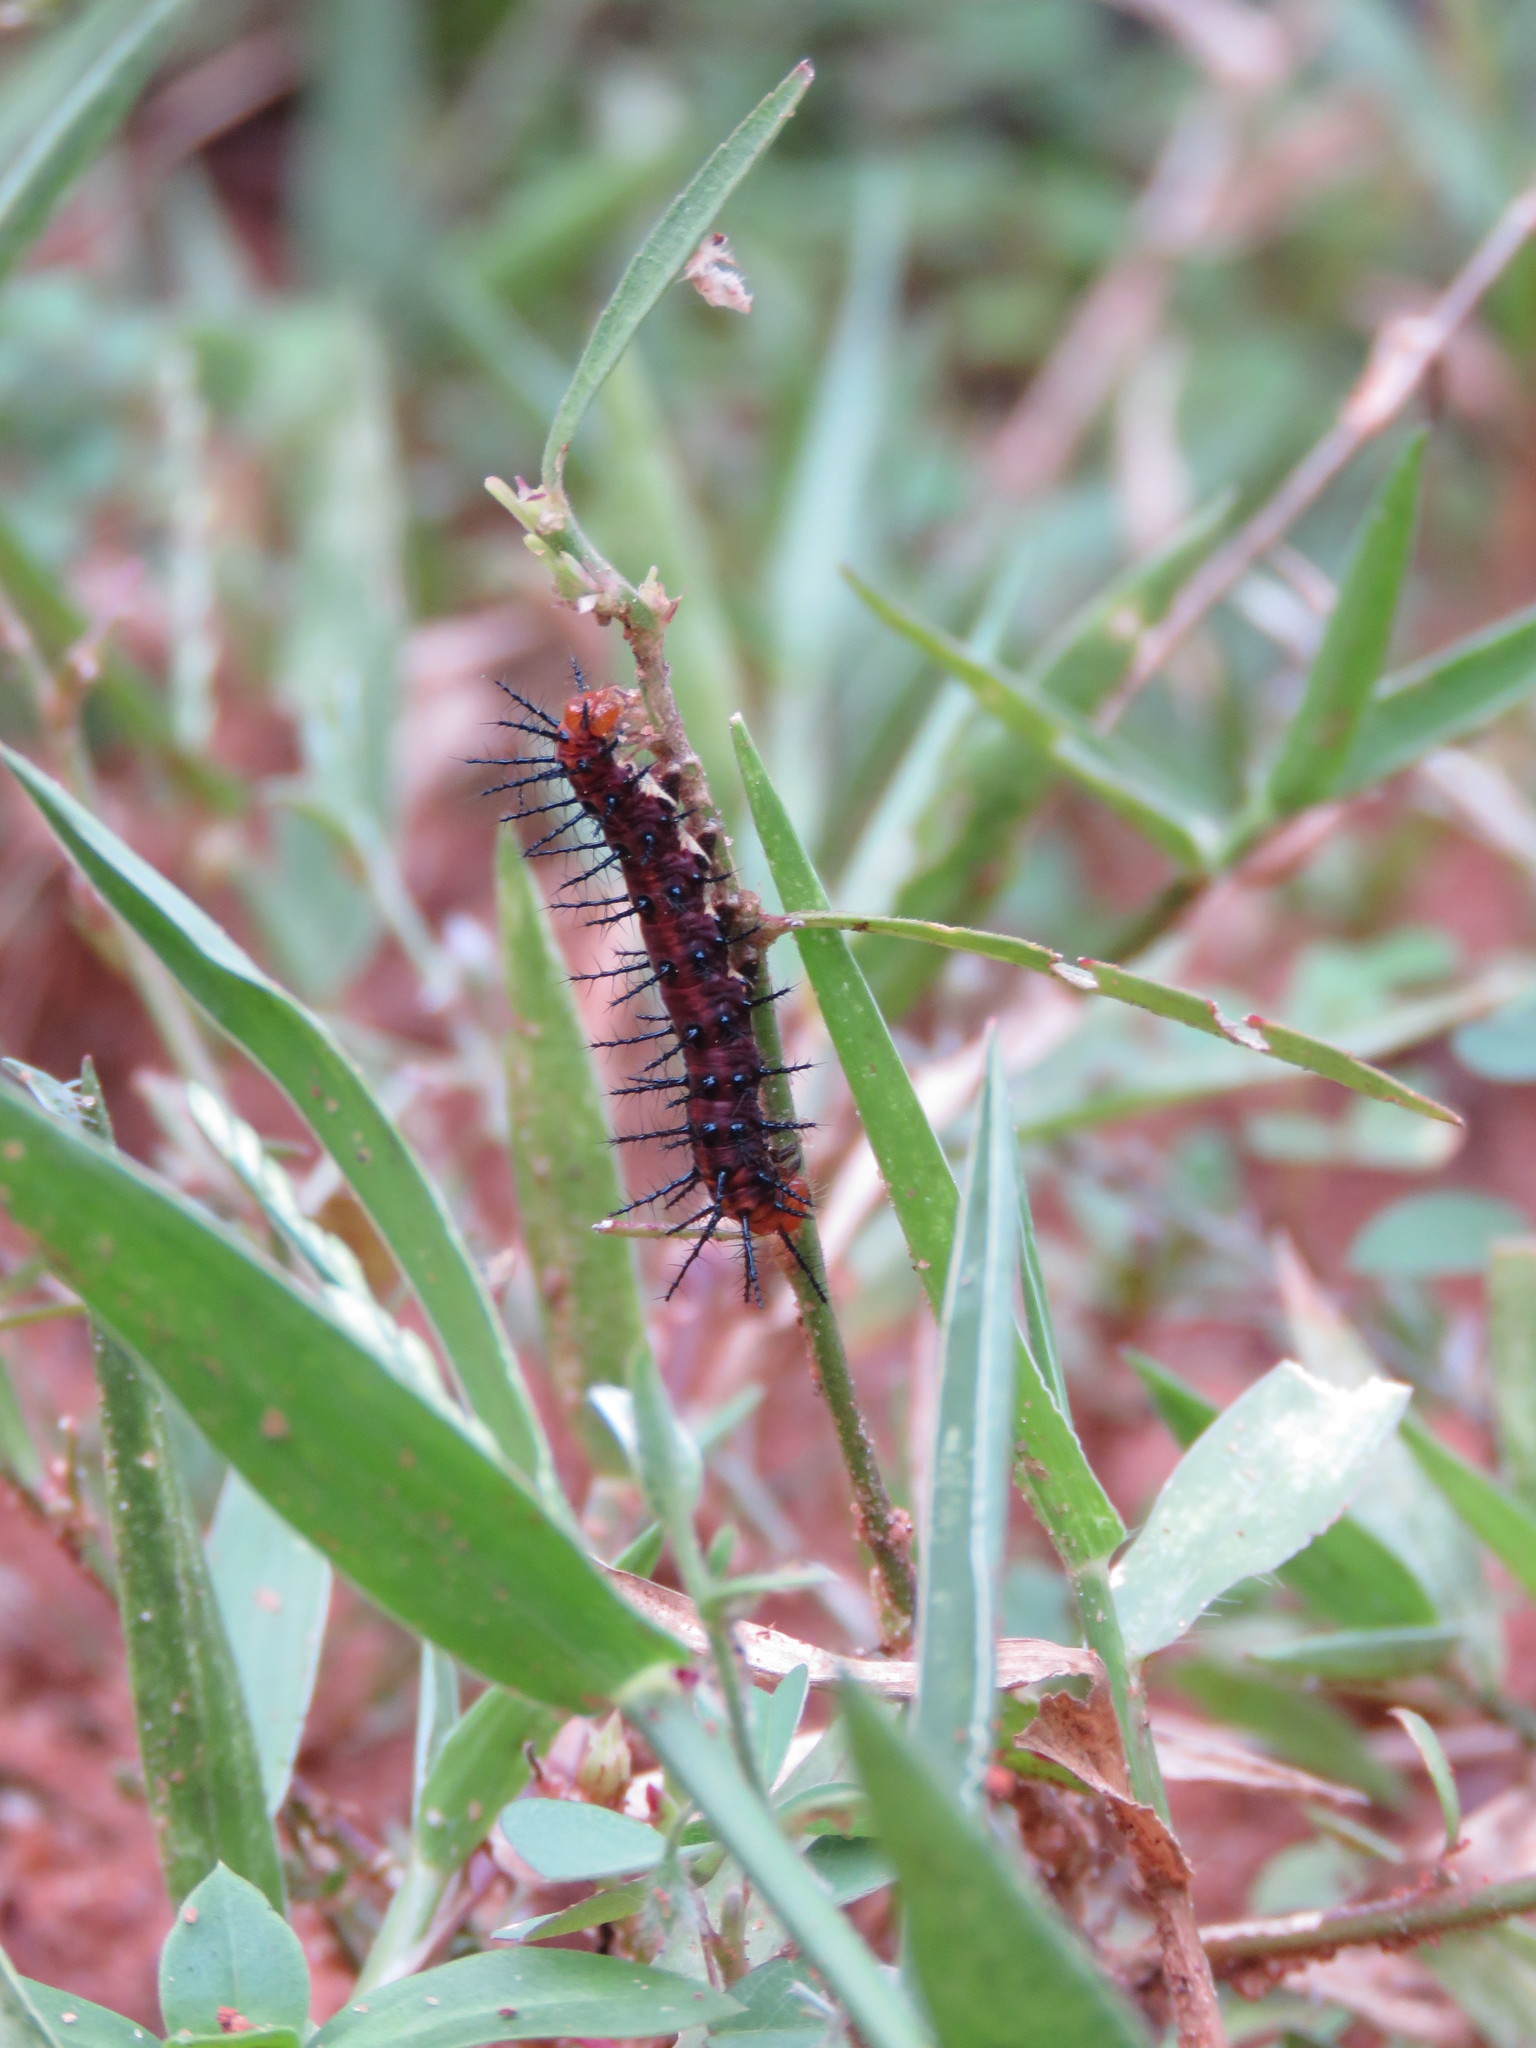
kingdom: Animalia
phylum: Arthropoda
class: Insecta
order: Lepidoptera
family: Nymphalidae
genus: Acraea
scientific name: Acraea terpsicore
